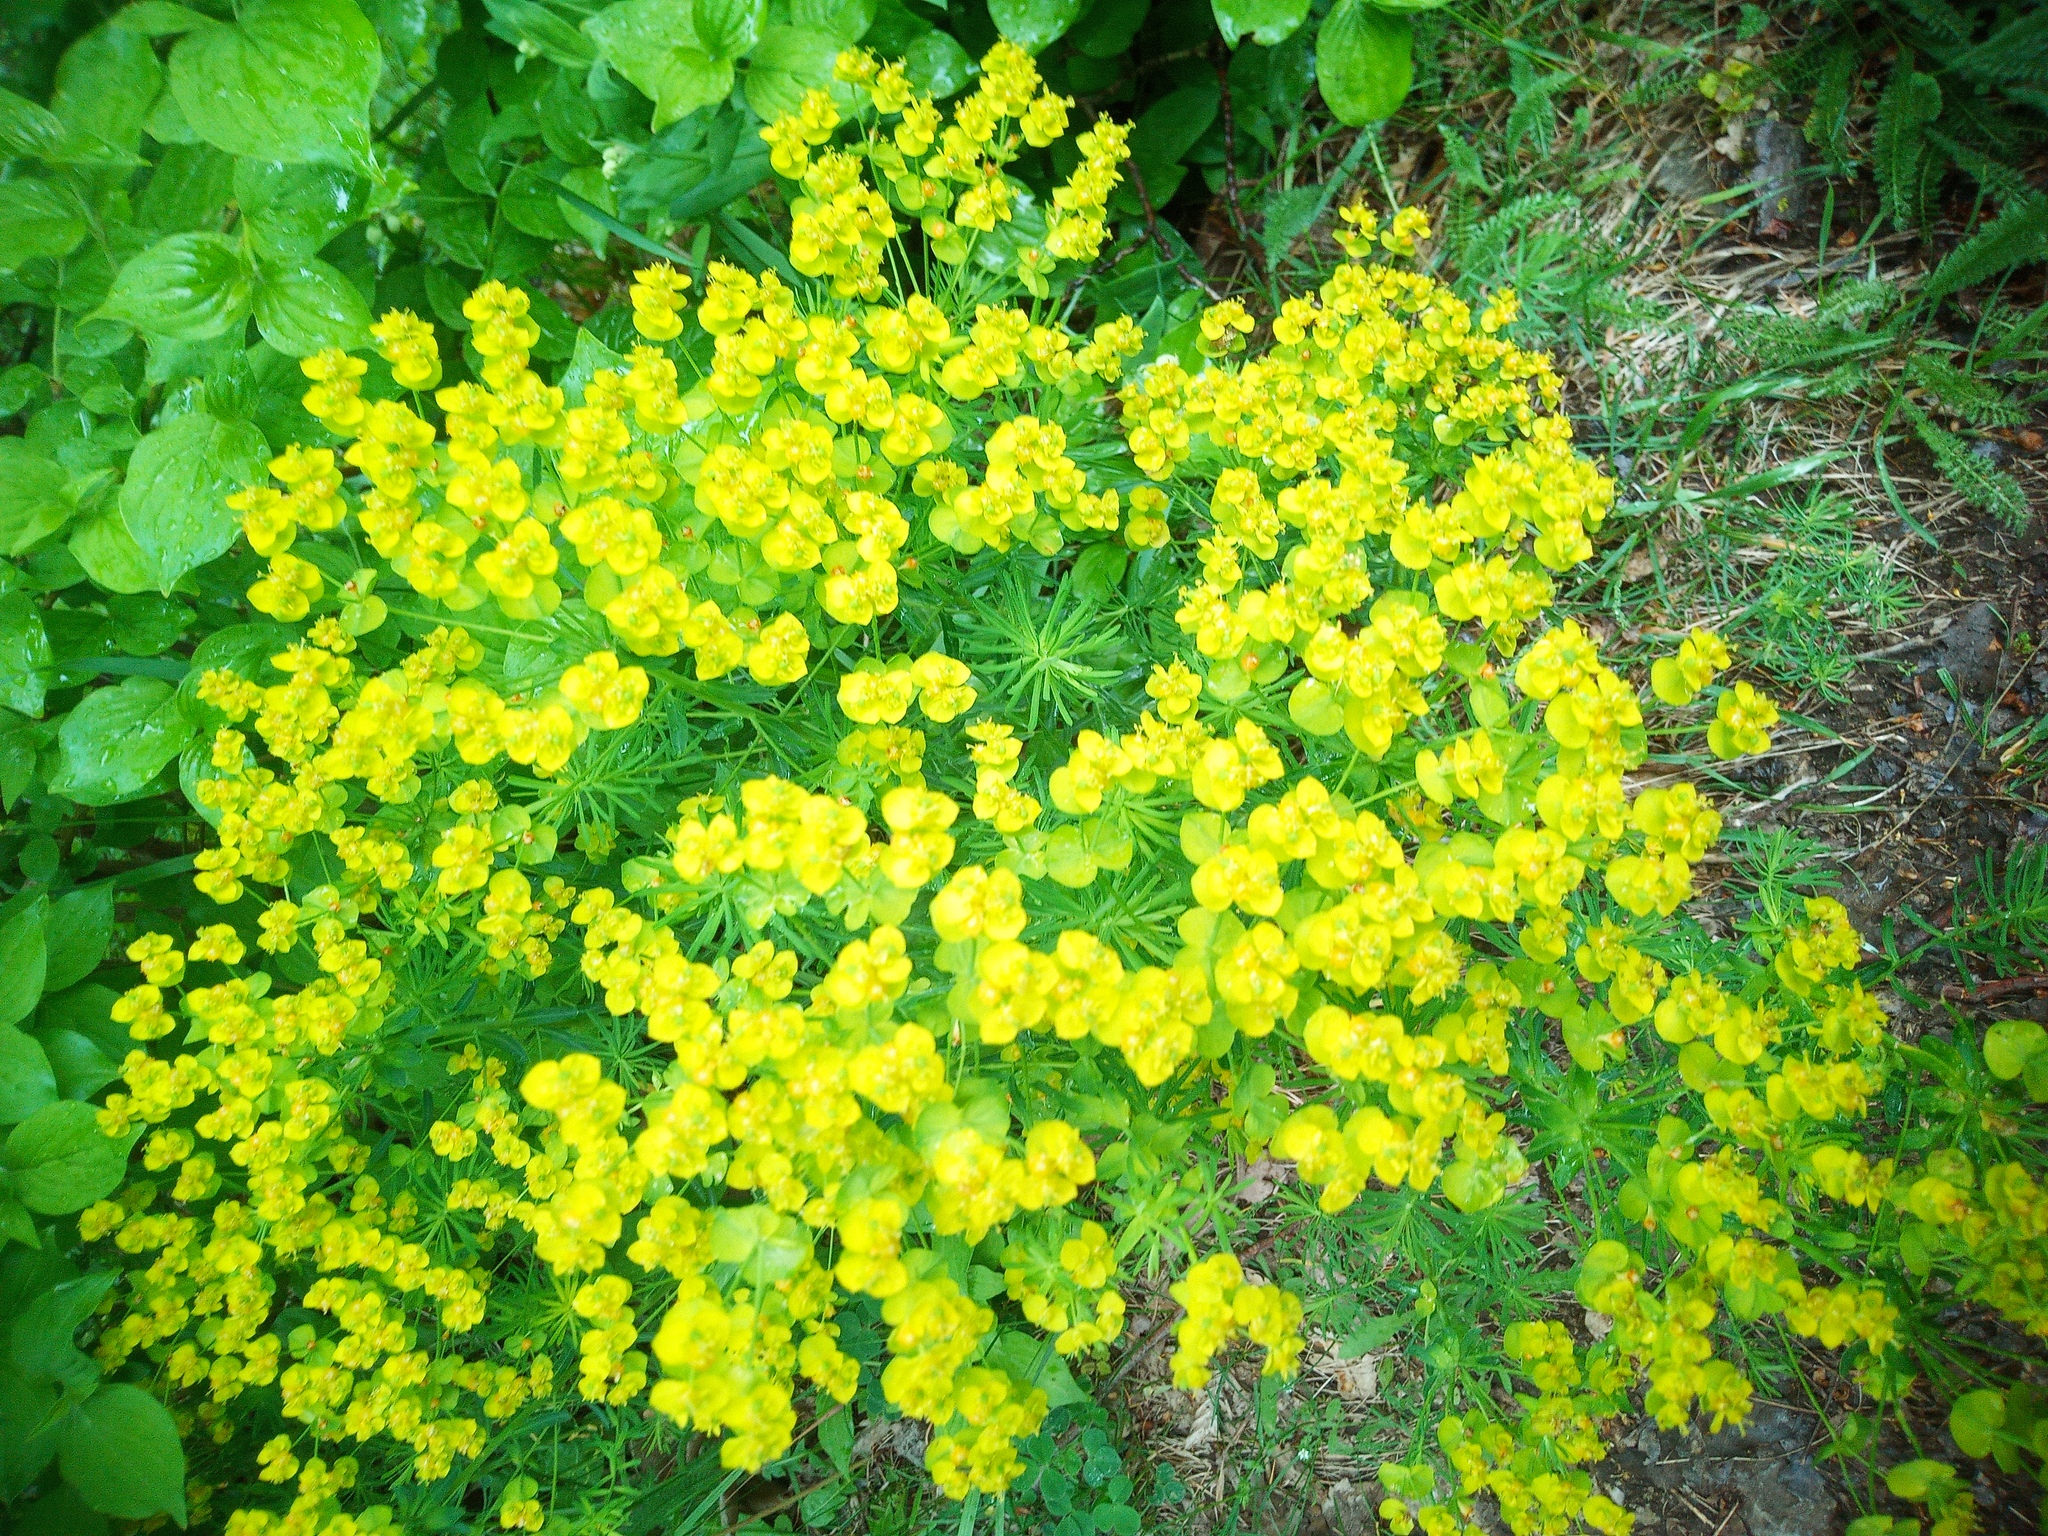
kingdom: Plantae
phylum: Tracheophyta
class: Magnoliopsida
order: Malpighiales
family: Euphorbiaceae
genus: Euphorbia
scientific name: Euphorbia cyparissias
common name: Cypress spurge
